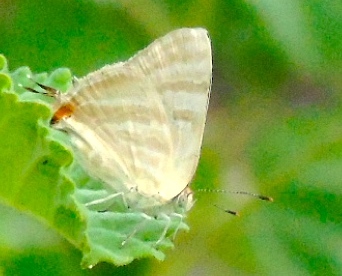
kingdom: Animalia
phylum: Arthropoda
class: Insecta
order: Lepidoptera
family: Lycaenidae
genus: Dolymorpha
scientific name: Dolymorpha jada
